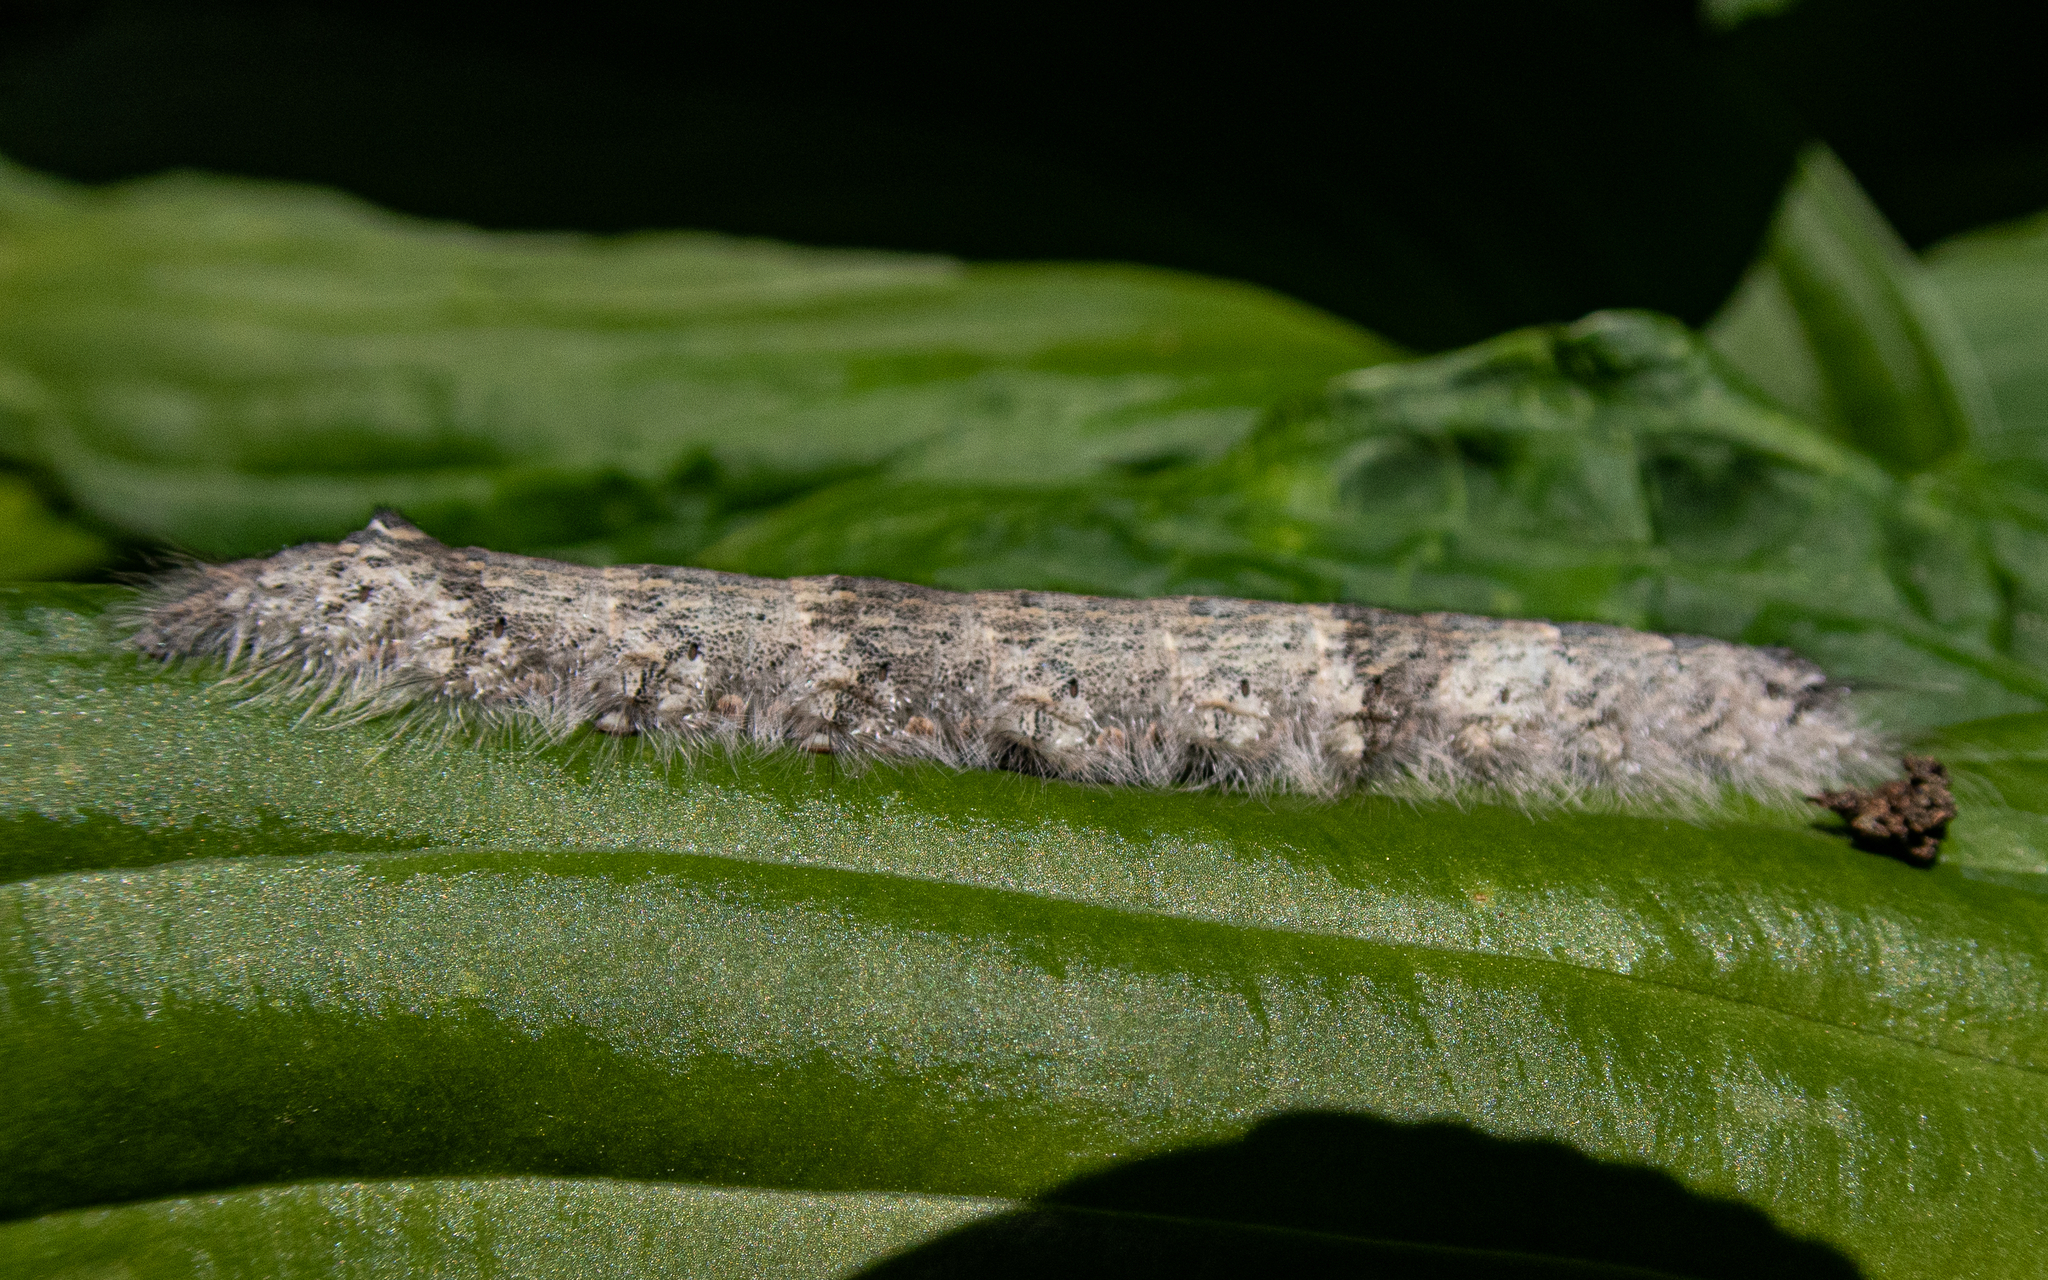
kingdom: Animalia
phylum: Arthropoda
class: Insecta
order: Lepidoptera
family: Lasiocampidae
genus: Phyllodesma
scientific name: Phyllodesma americana
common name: American lappet moth
